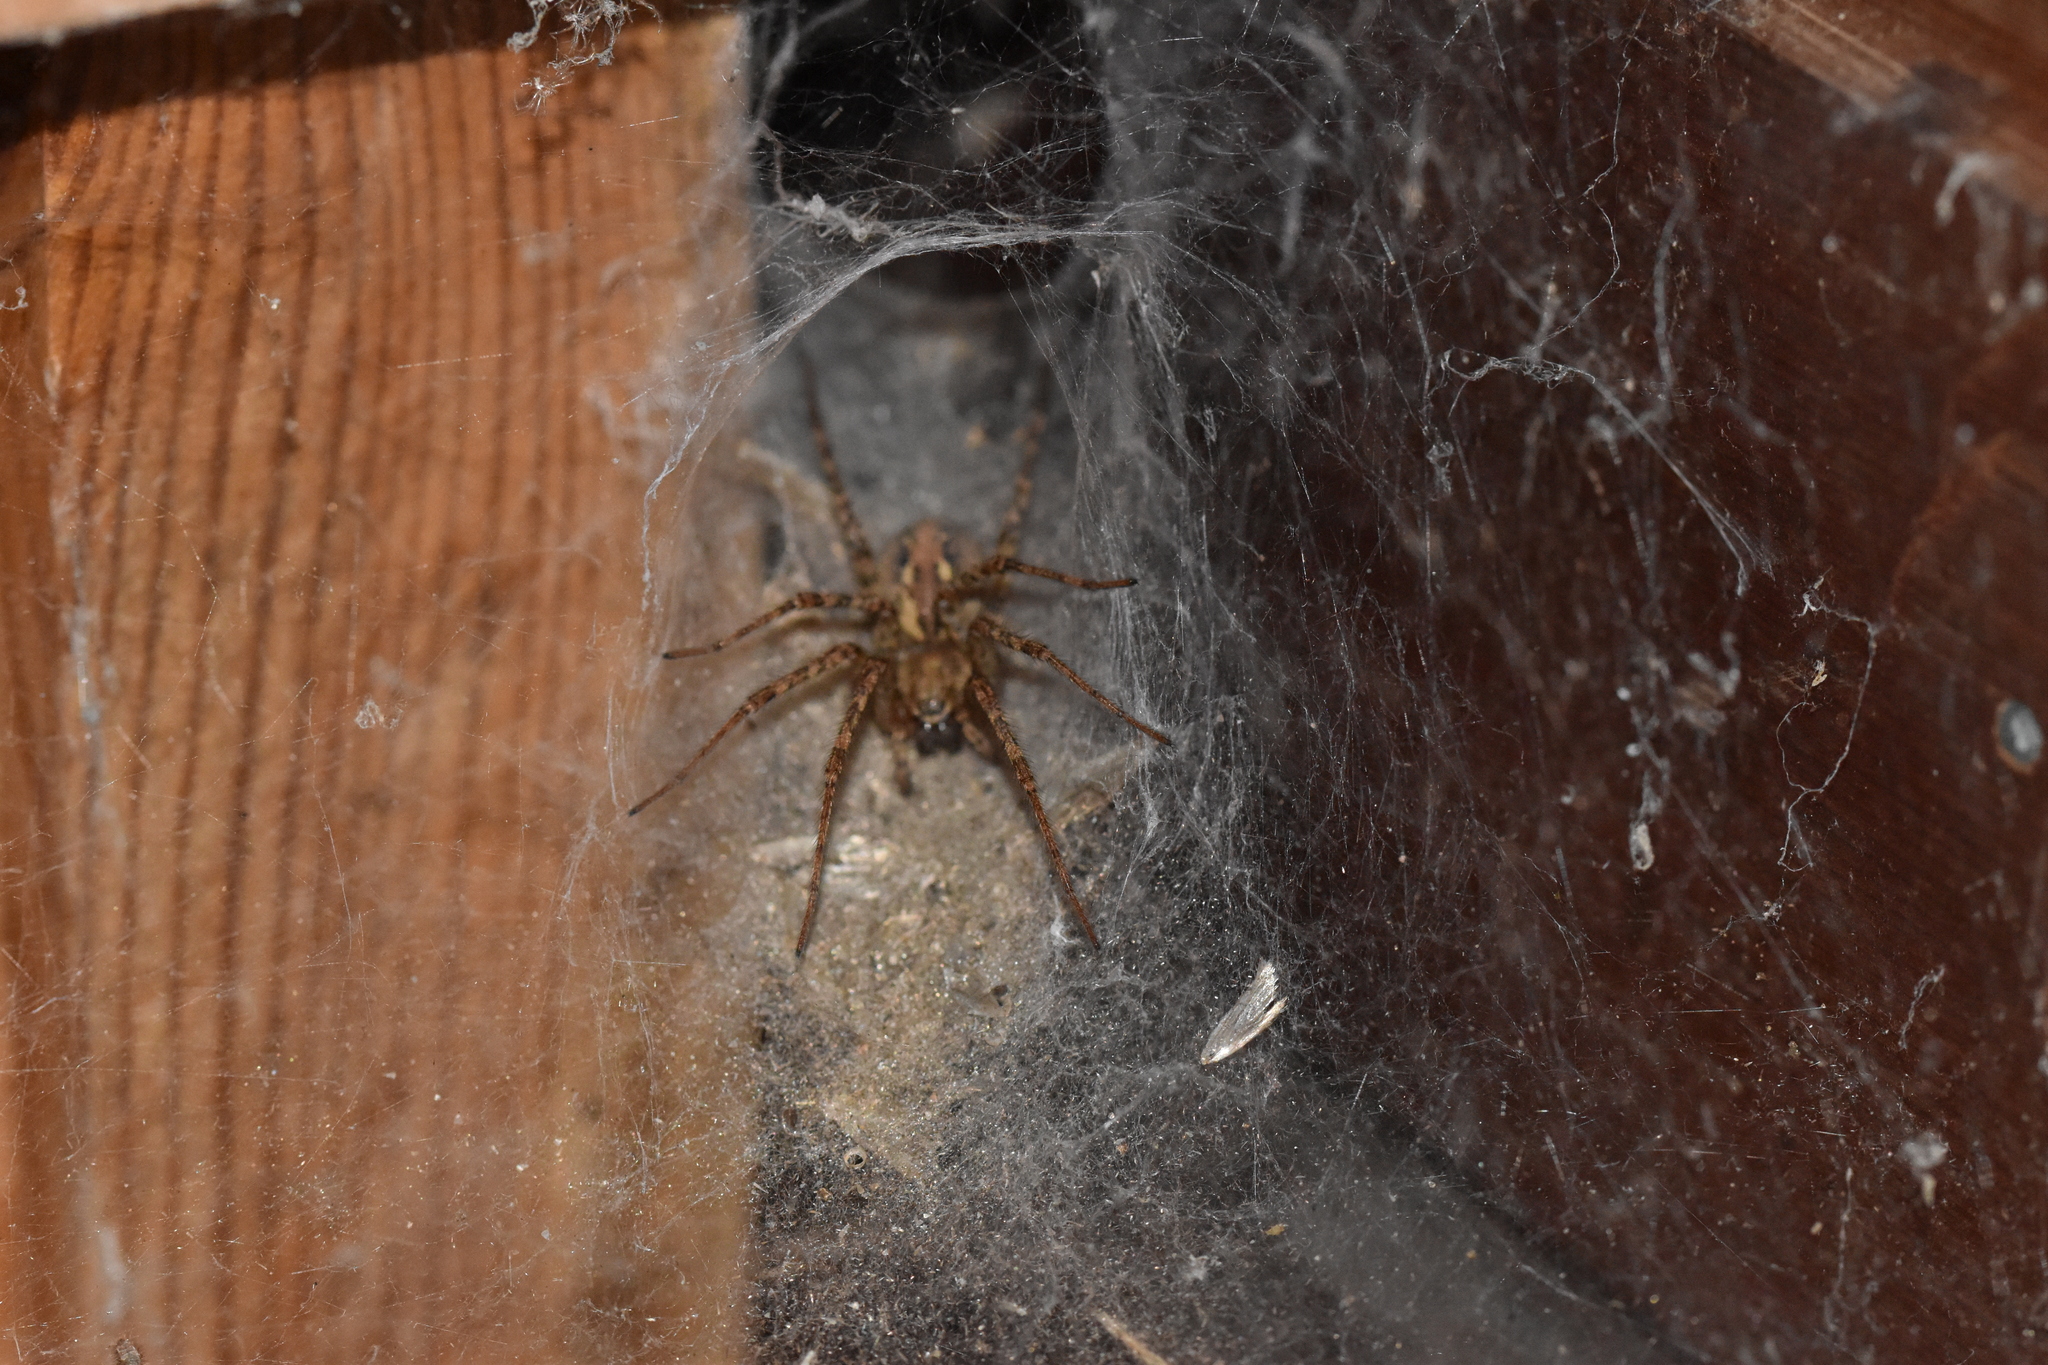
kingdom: Animalia
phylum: Arthropoda
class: Arachnida
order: Araneae
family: Agelenidae
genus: Tegenaria
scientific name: Tegenaria ferruginea
